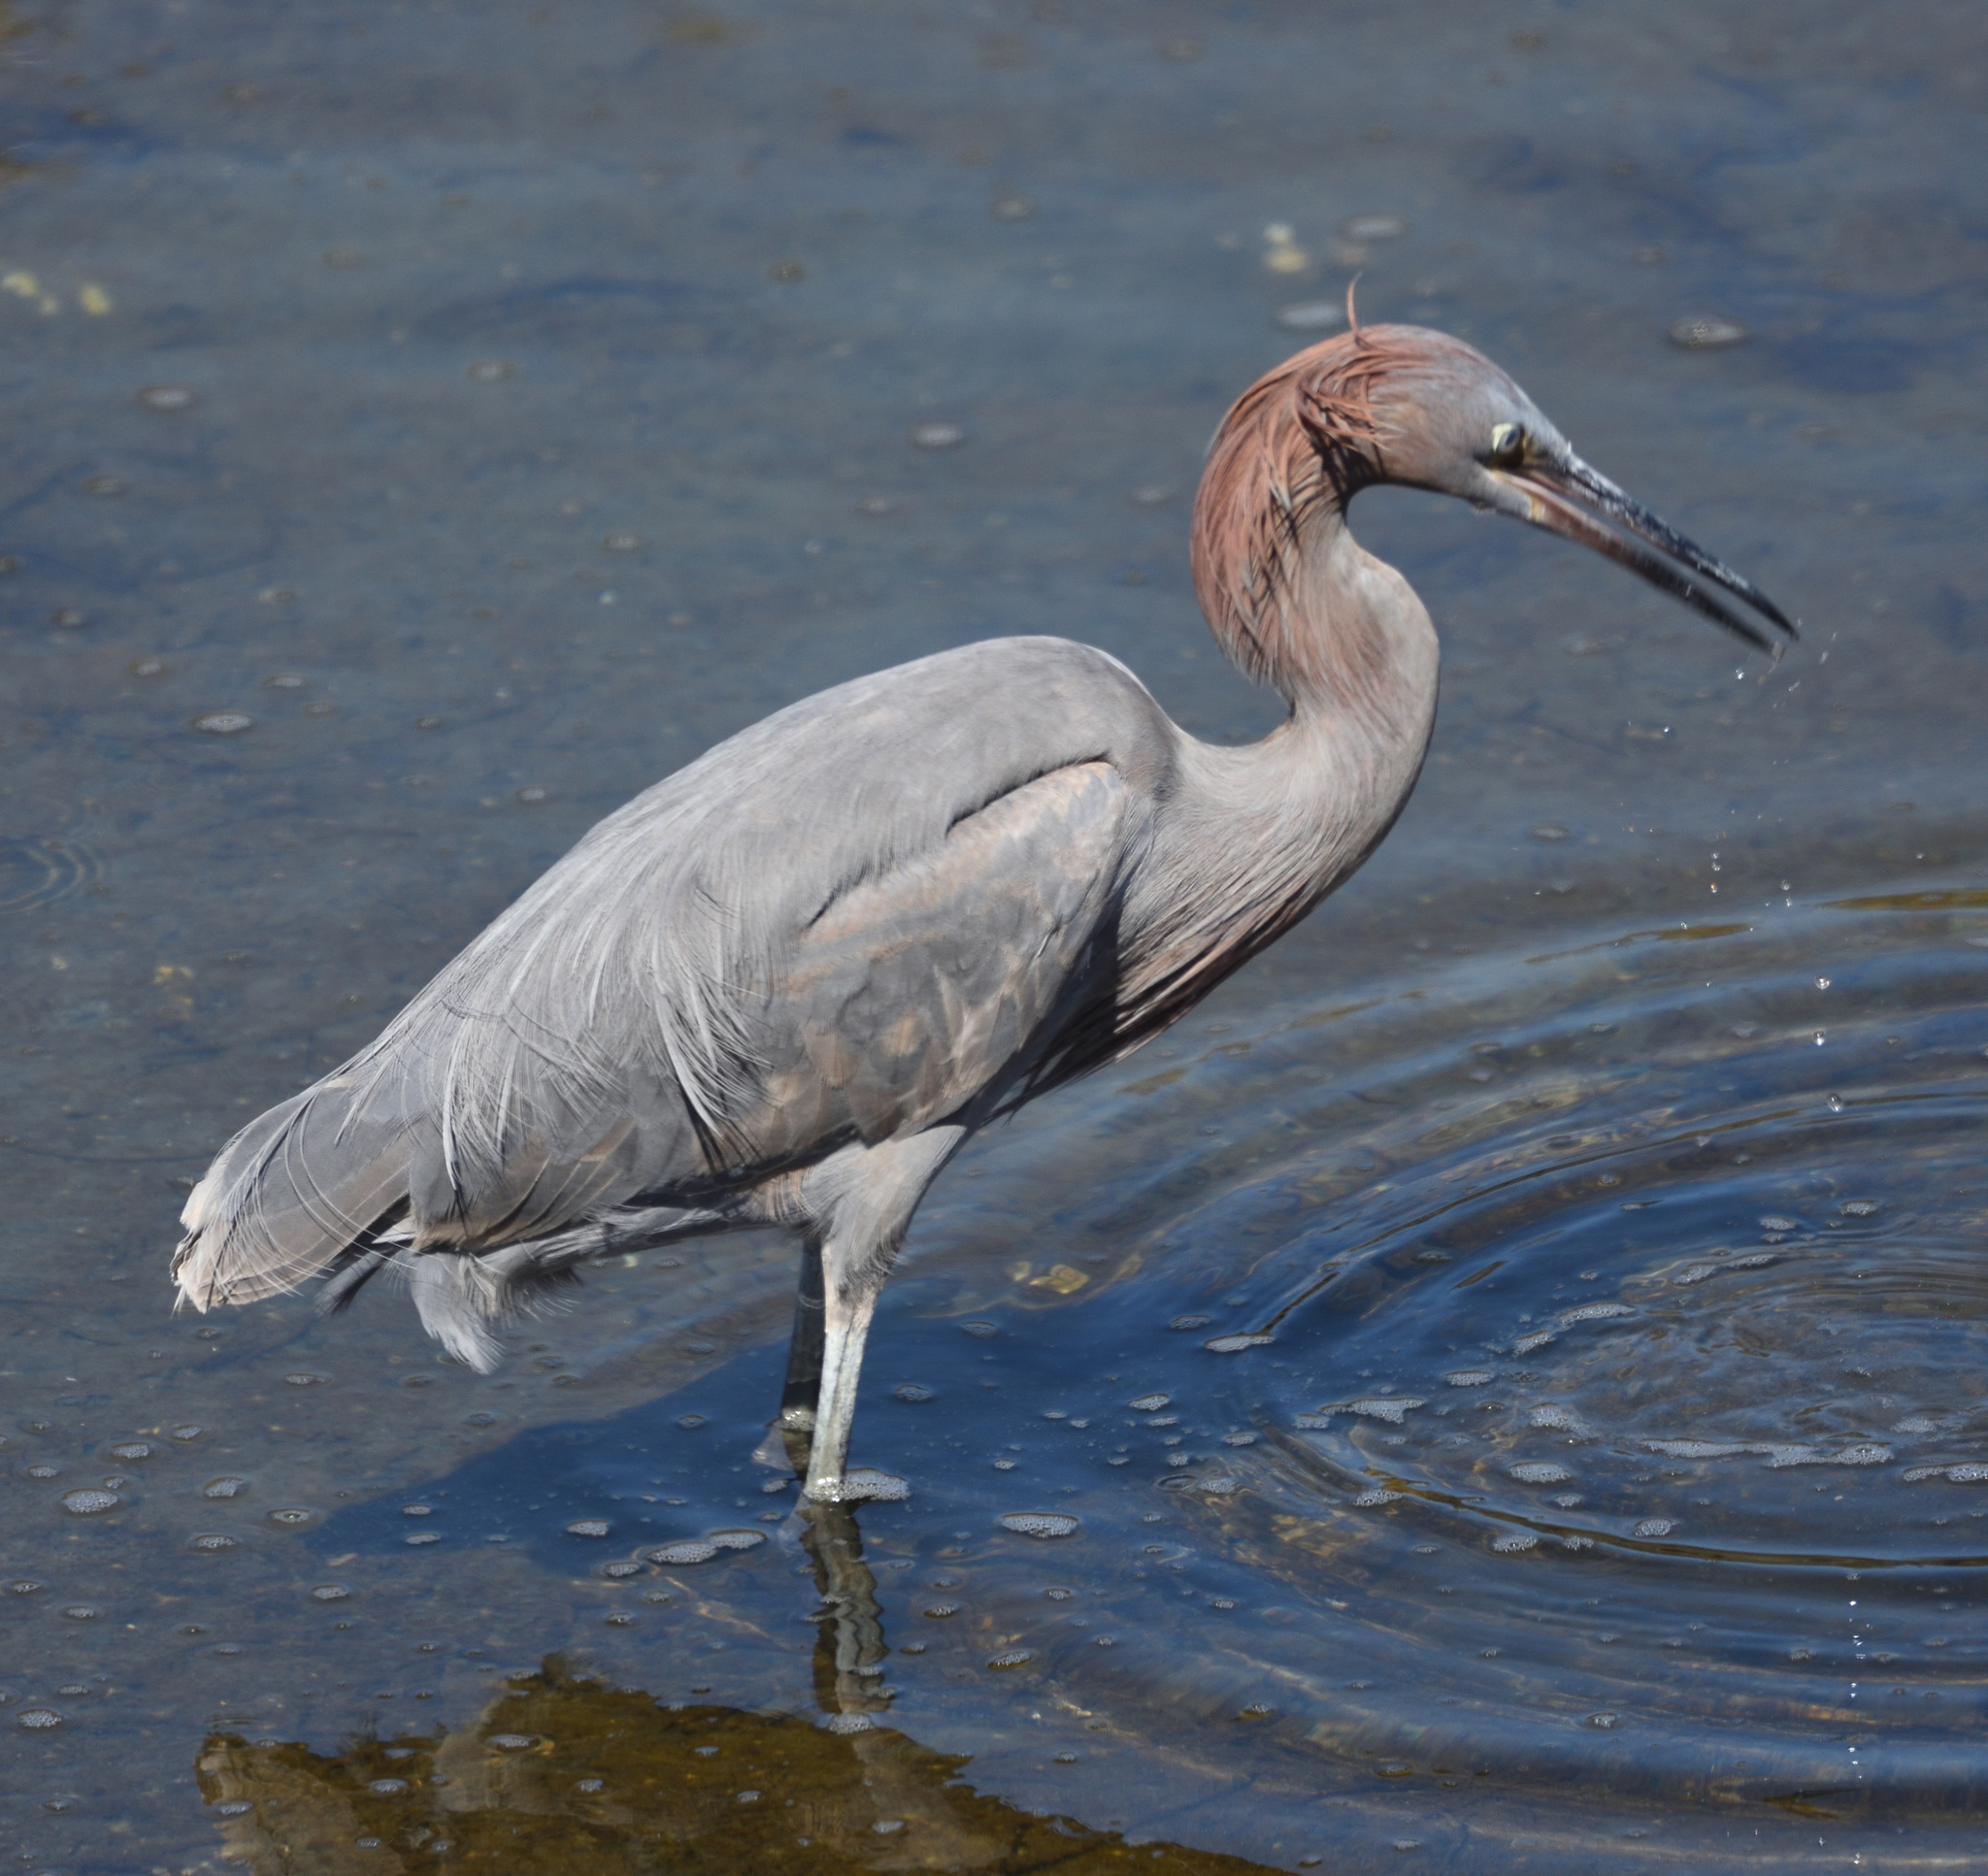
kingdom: Animalia
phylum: Chordata
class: Aves
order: Pelecaniformes
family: Ardeidae
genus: Egretta
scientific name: Egretta rufescens
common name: Reddish egret
